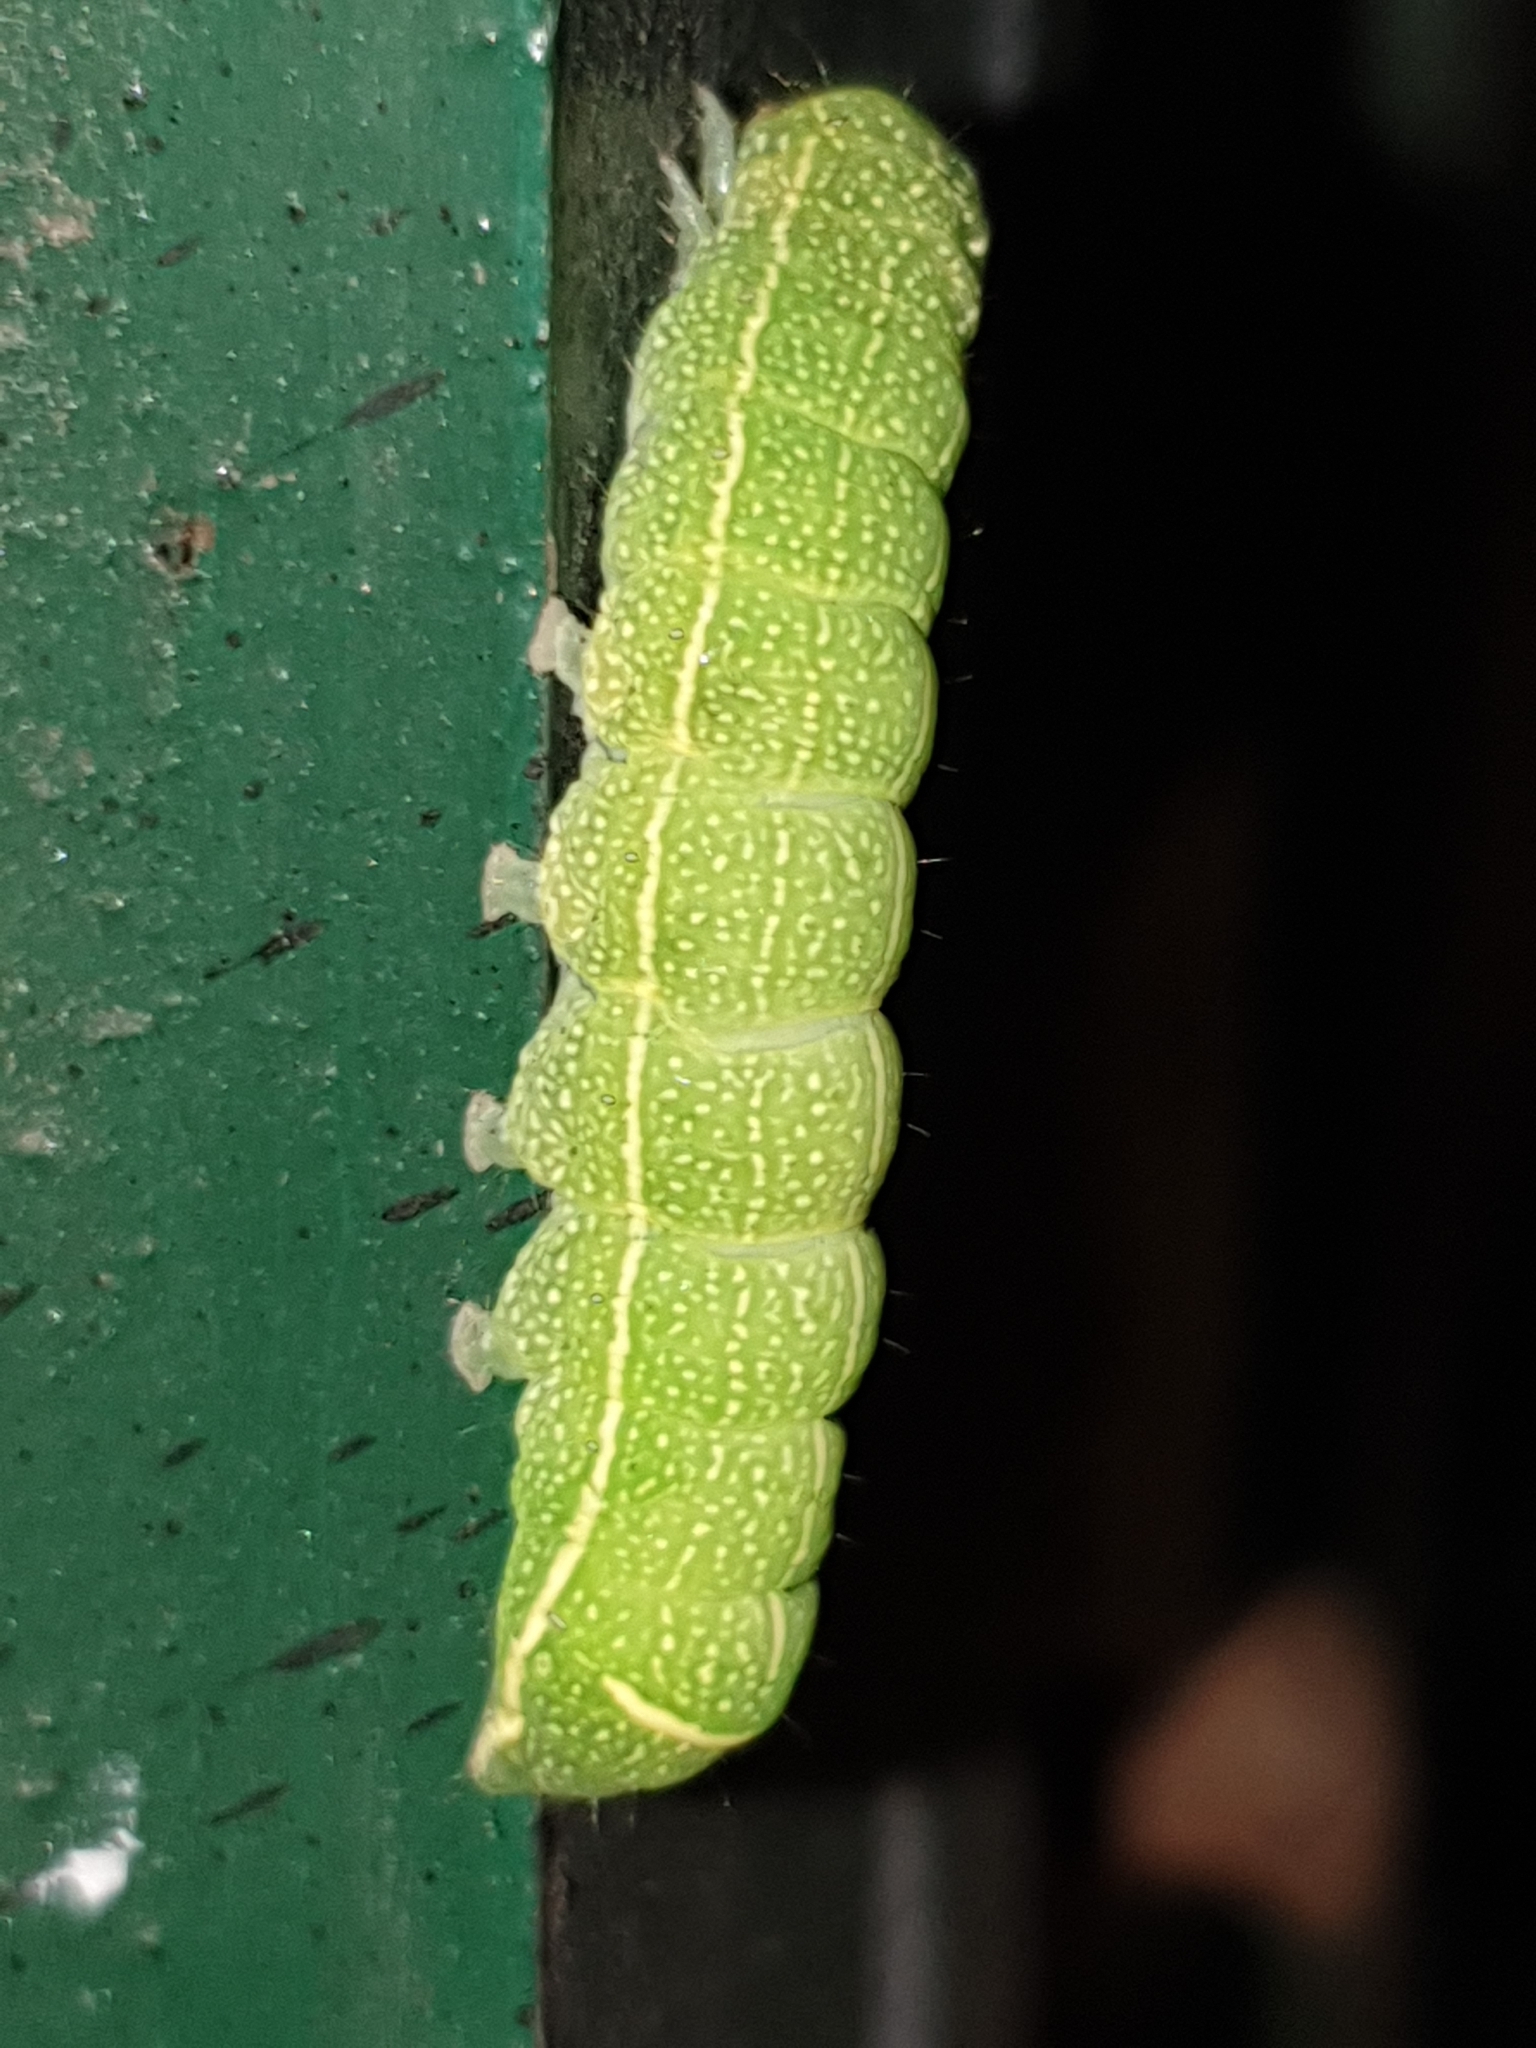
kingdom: Animalia
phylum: Arthropoda
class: Insecta
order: Lepidoptera
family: Noctuidae
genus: Orthosia
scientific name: Orthosia cerasi
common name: Common quaker
